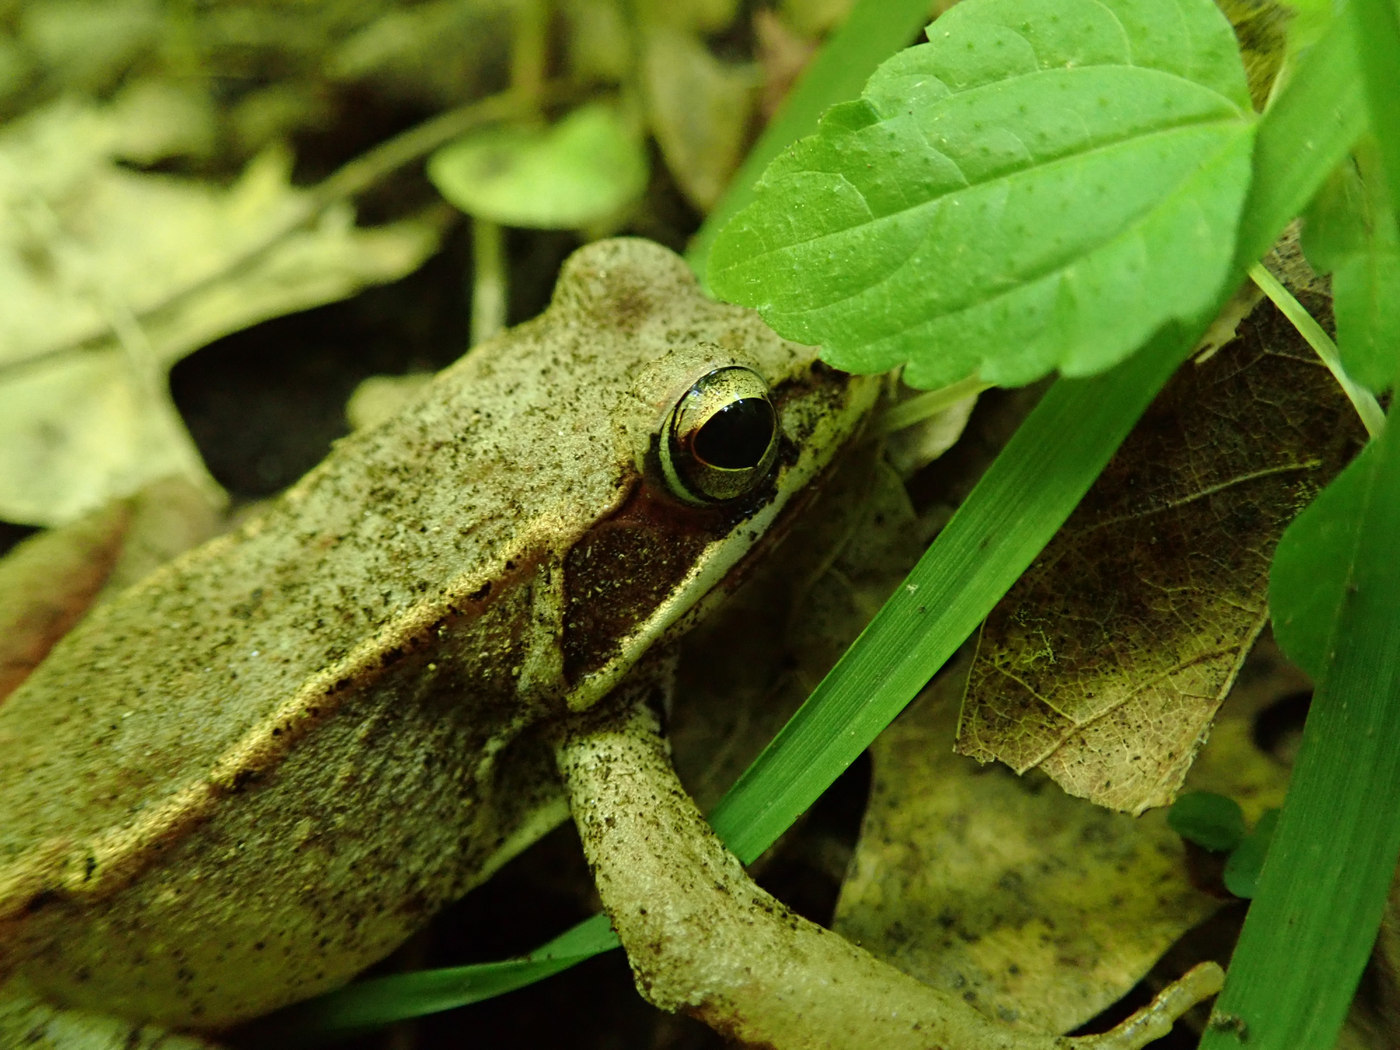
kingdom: Animalia
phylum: Chordata
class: Amphibia
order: Anura
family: Ranidae
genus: Lithobates
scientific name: Lithobates sylvaticus
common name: Wood frog
